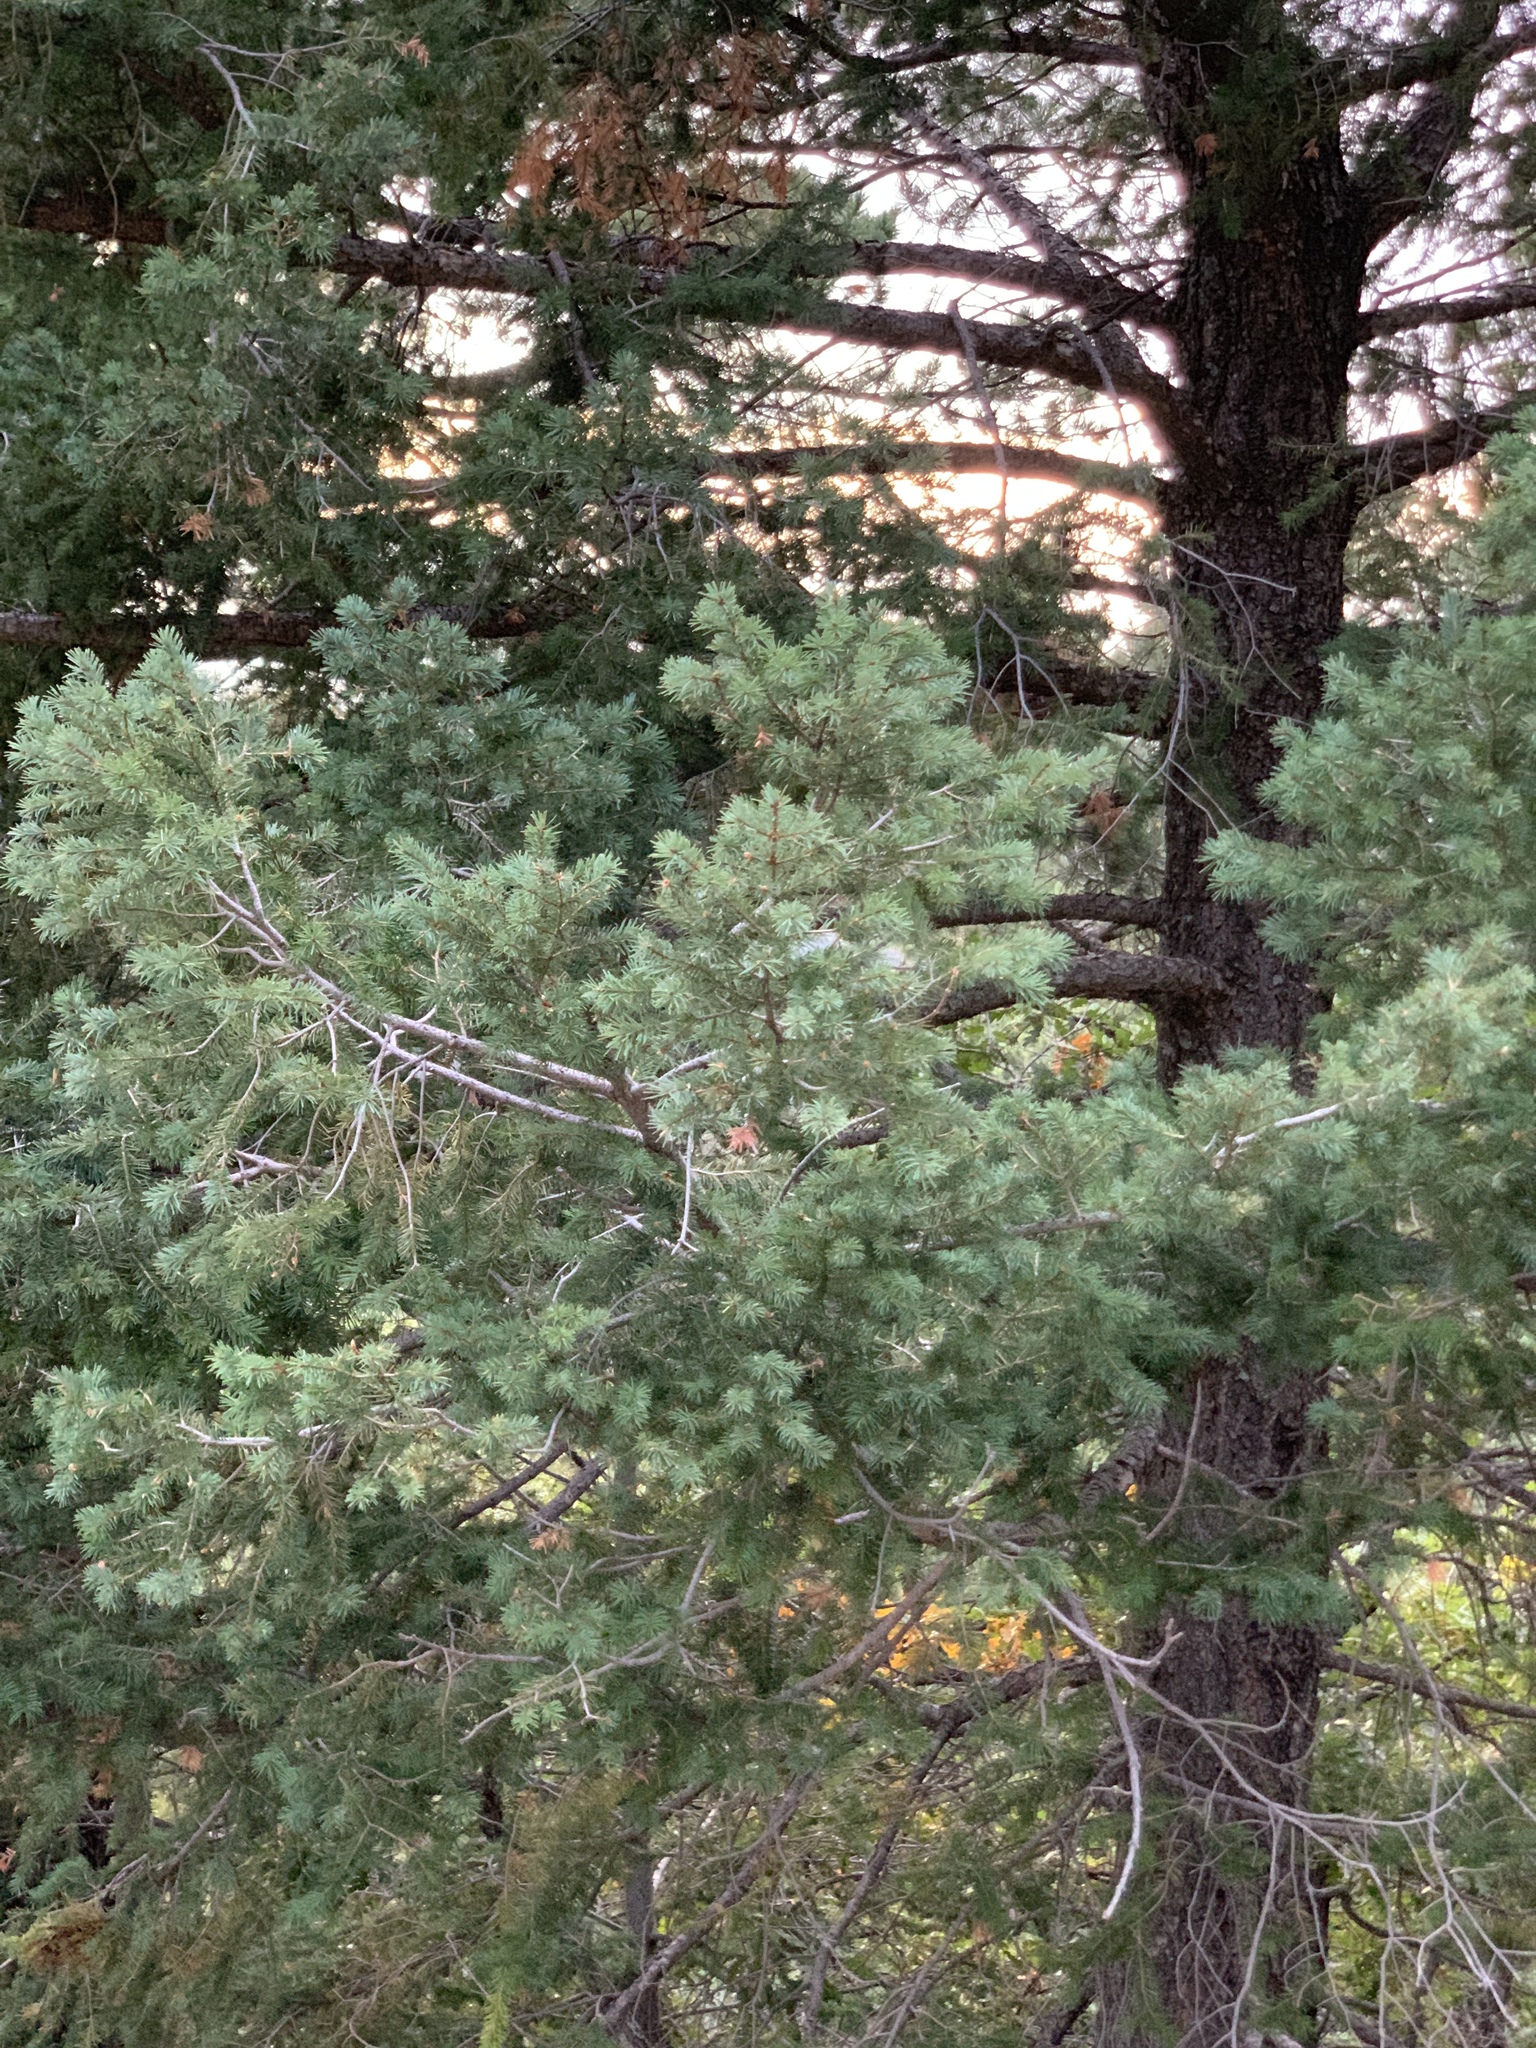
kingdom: Plantae
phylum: Tracheophyta
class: Pinopsida
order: Pinales
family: Pinaceae
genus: Pseudotsuga
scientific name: Pseudotsuga menziesii
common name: Douglas fir
